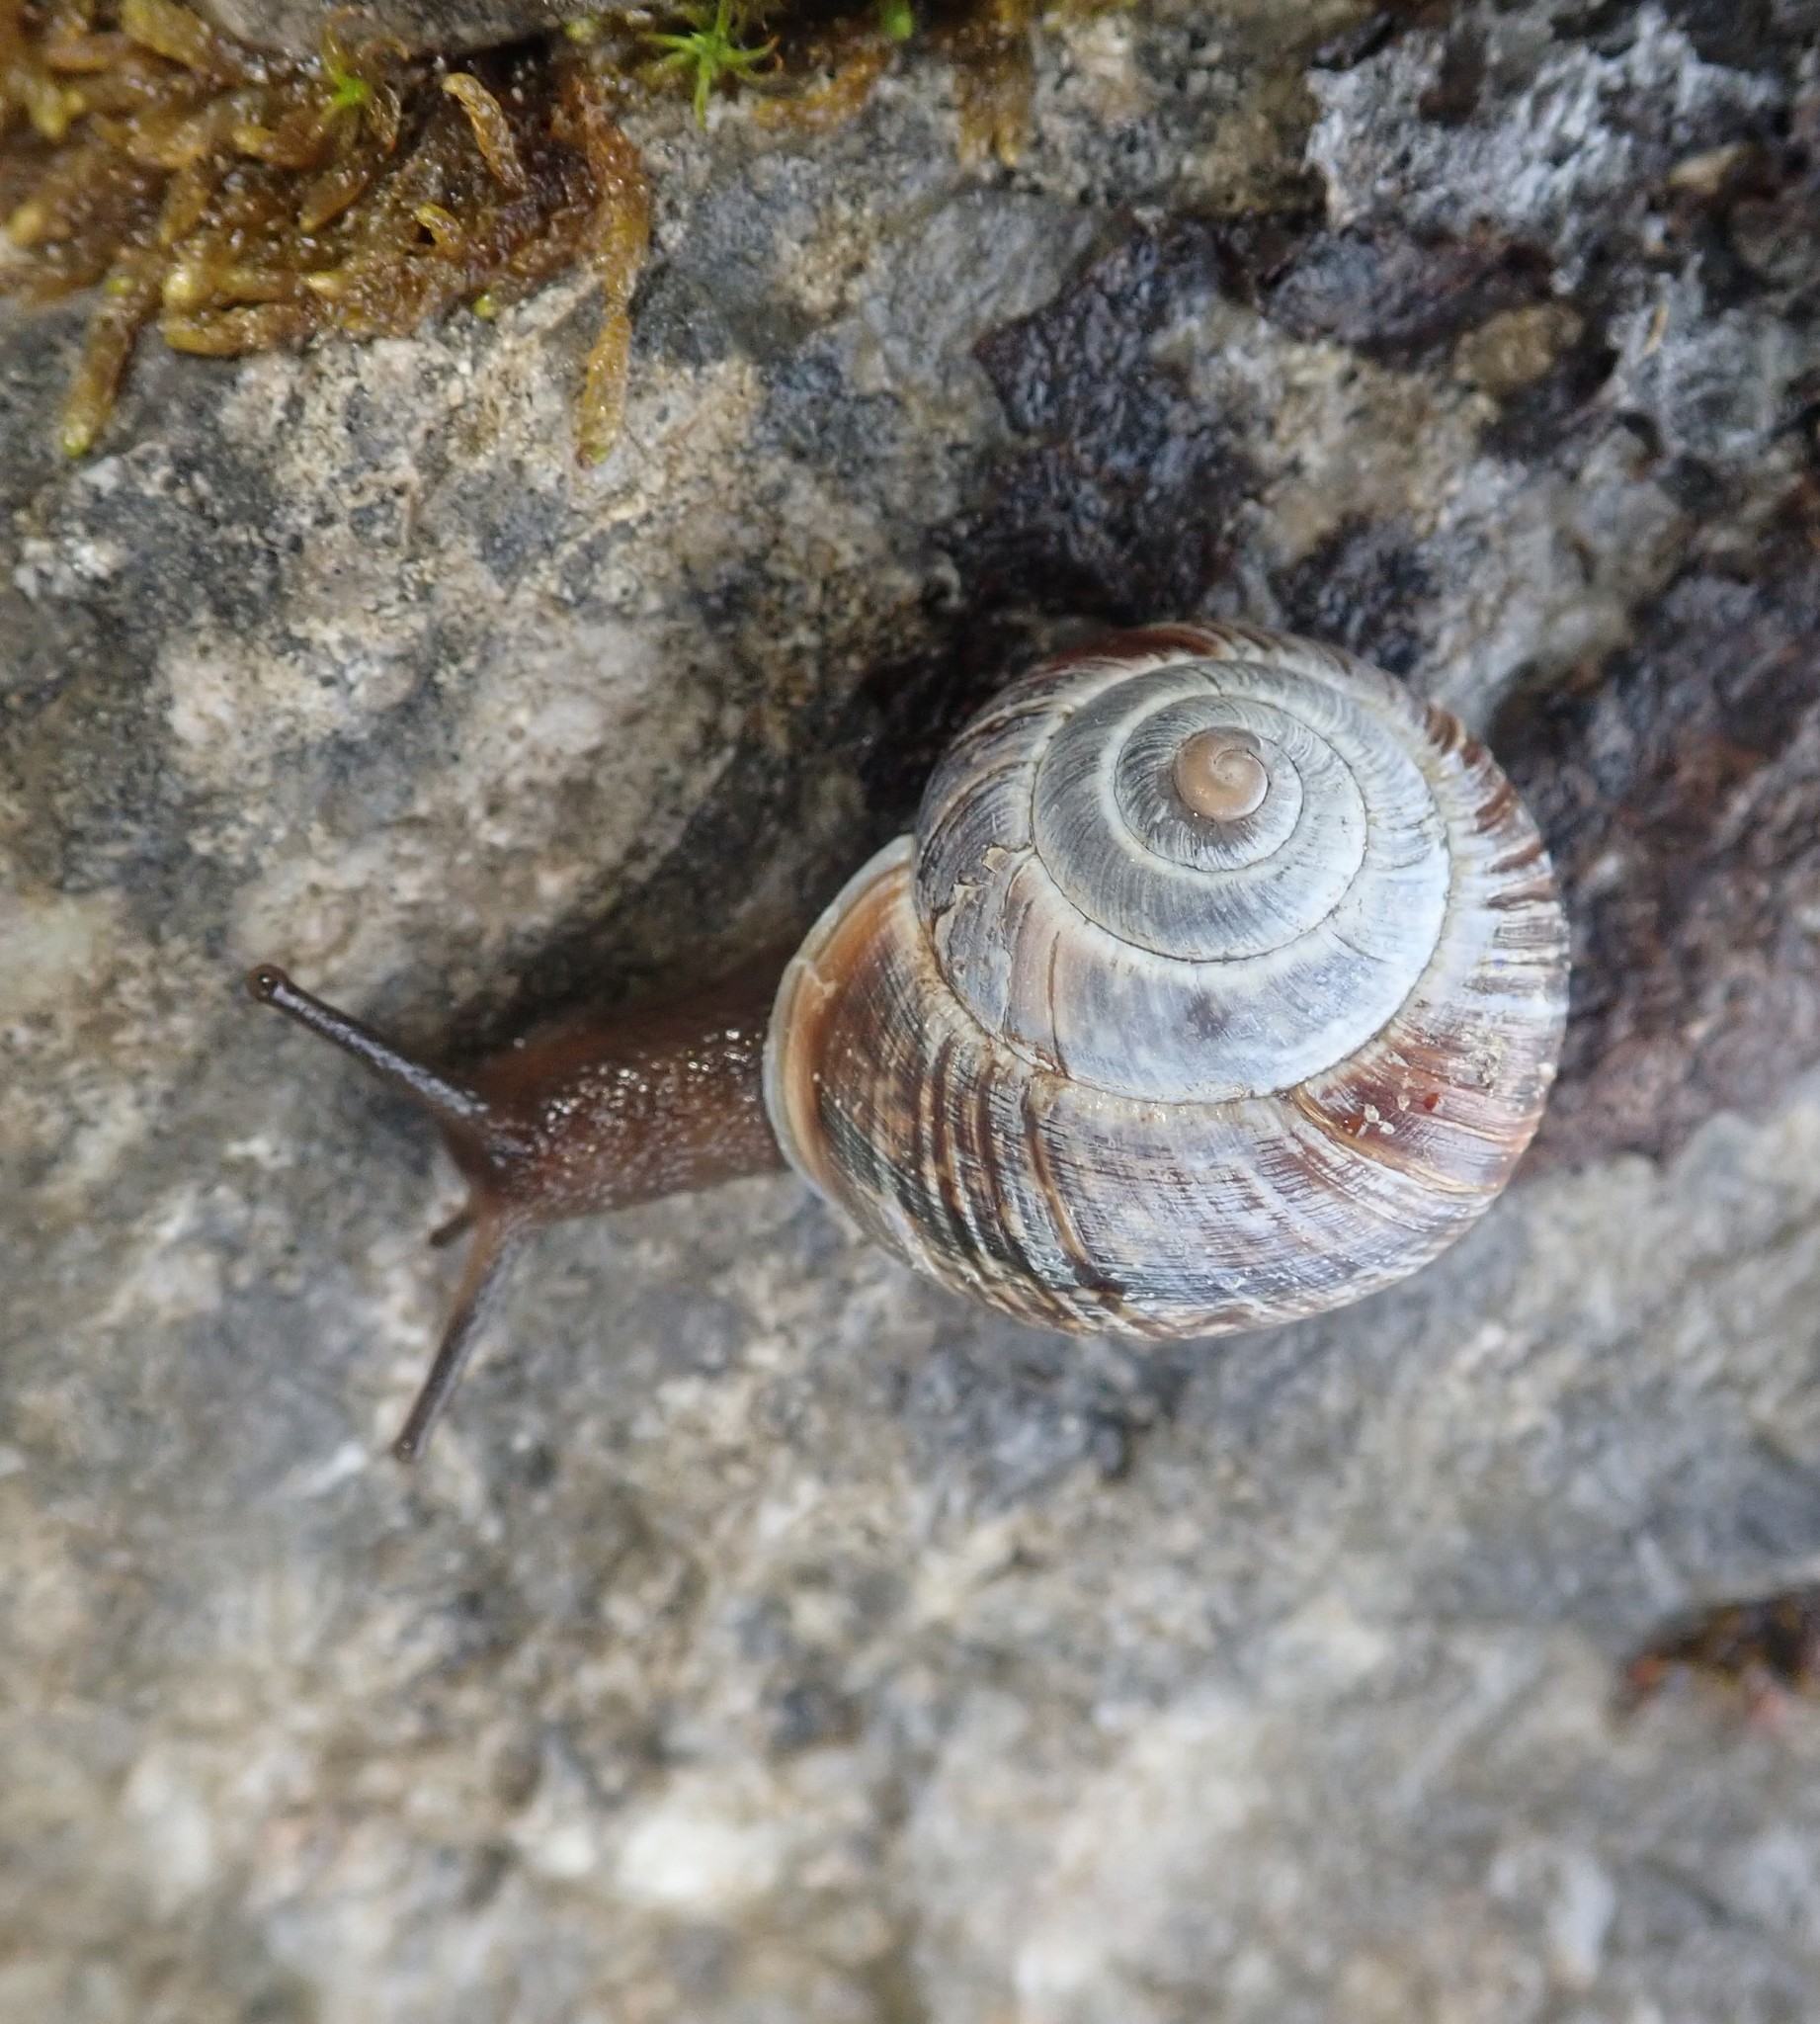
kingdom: Animalia
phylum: Mollusca
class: Gastropoda
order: Stylommatophora
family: Helicidae
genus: Arianta
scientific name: Arianta arbustorum
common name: Copse snail
